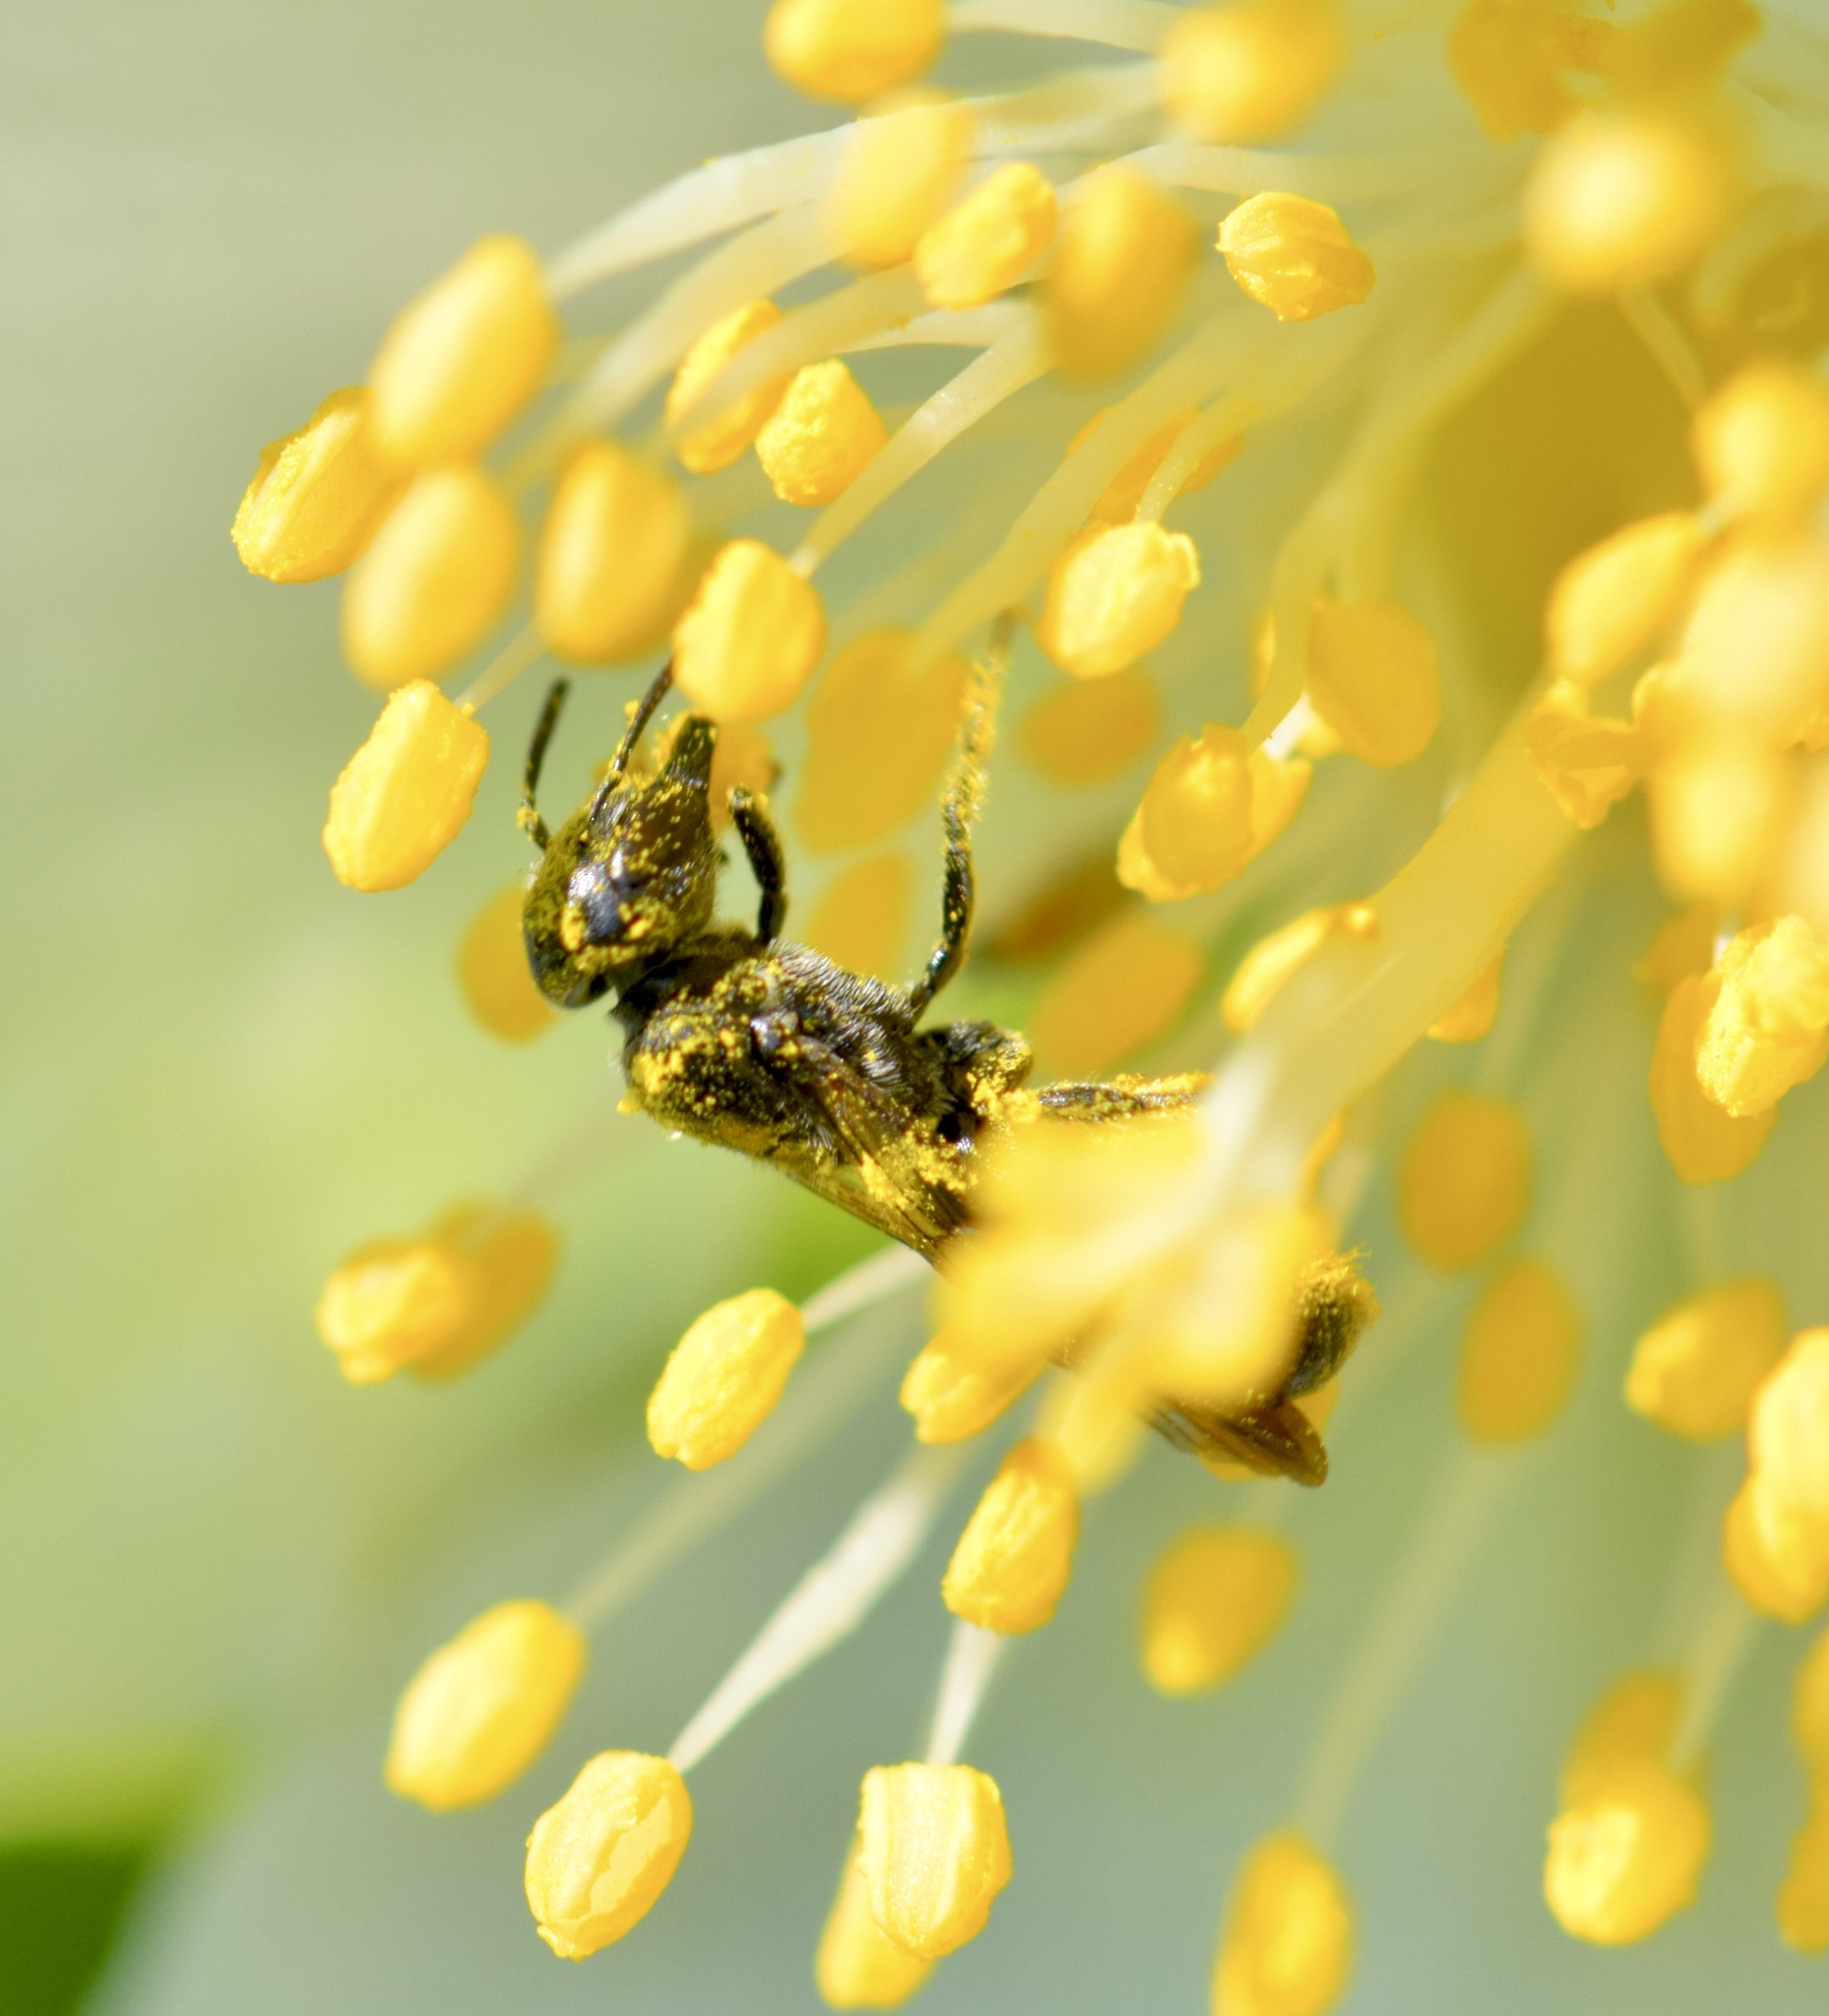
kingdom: Animalia
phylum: Arthropoda
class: Insecta
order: Hymenoptera
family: Megachilidae
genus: Chelostoma
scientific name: Chelostoma philadelphi
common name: Mock-orange scissor bee
